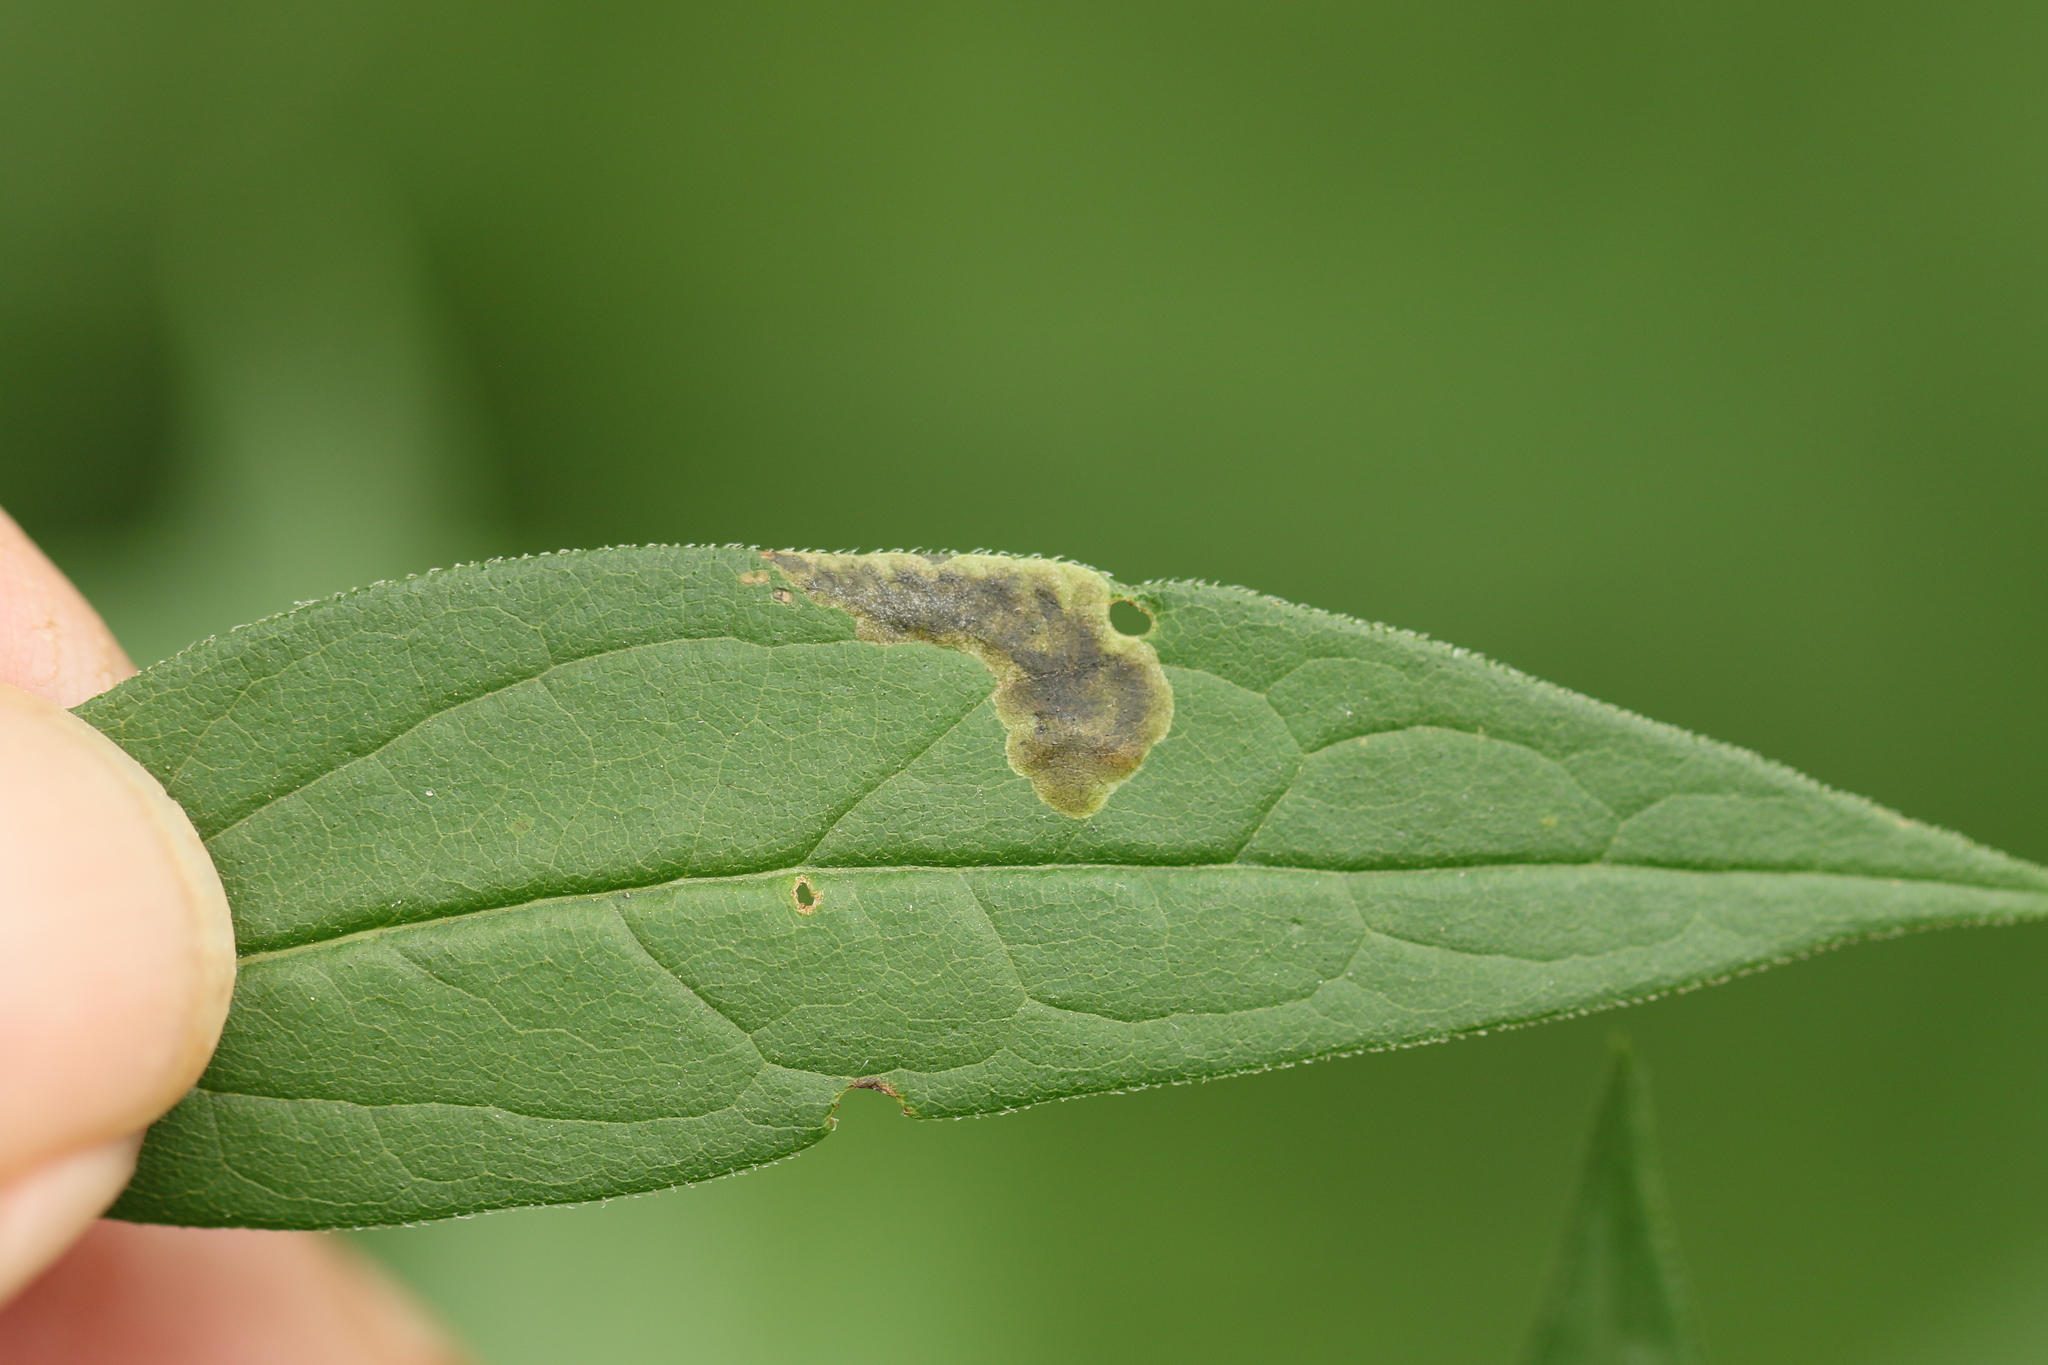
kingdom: Animalia
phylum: Arthropoda
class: Insecta
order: Diptera
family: Agromyzidae
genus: Nemorimyza
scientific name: Nemorimyza posticata
